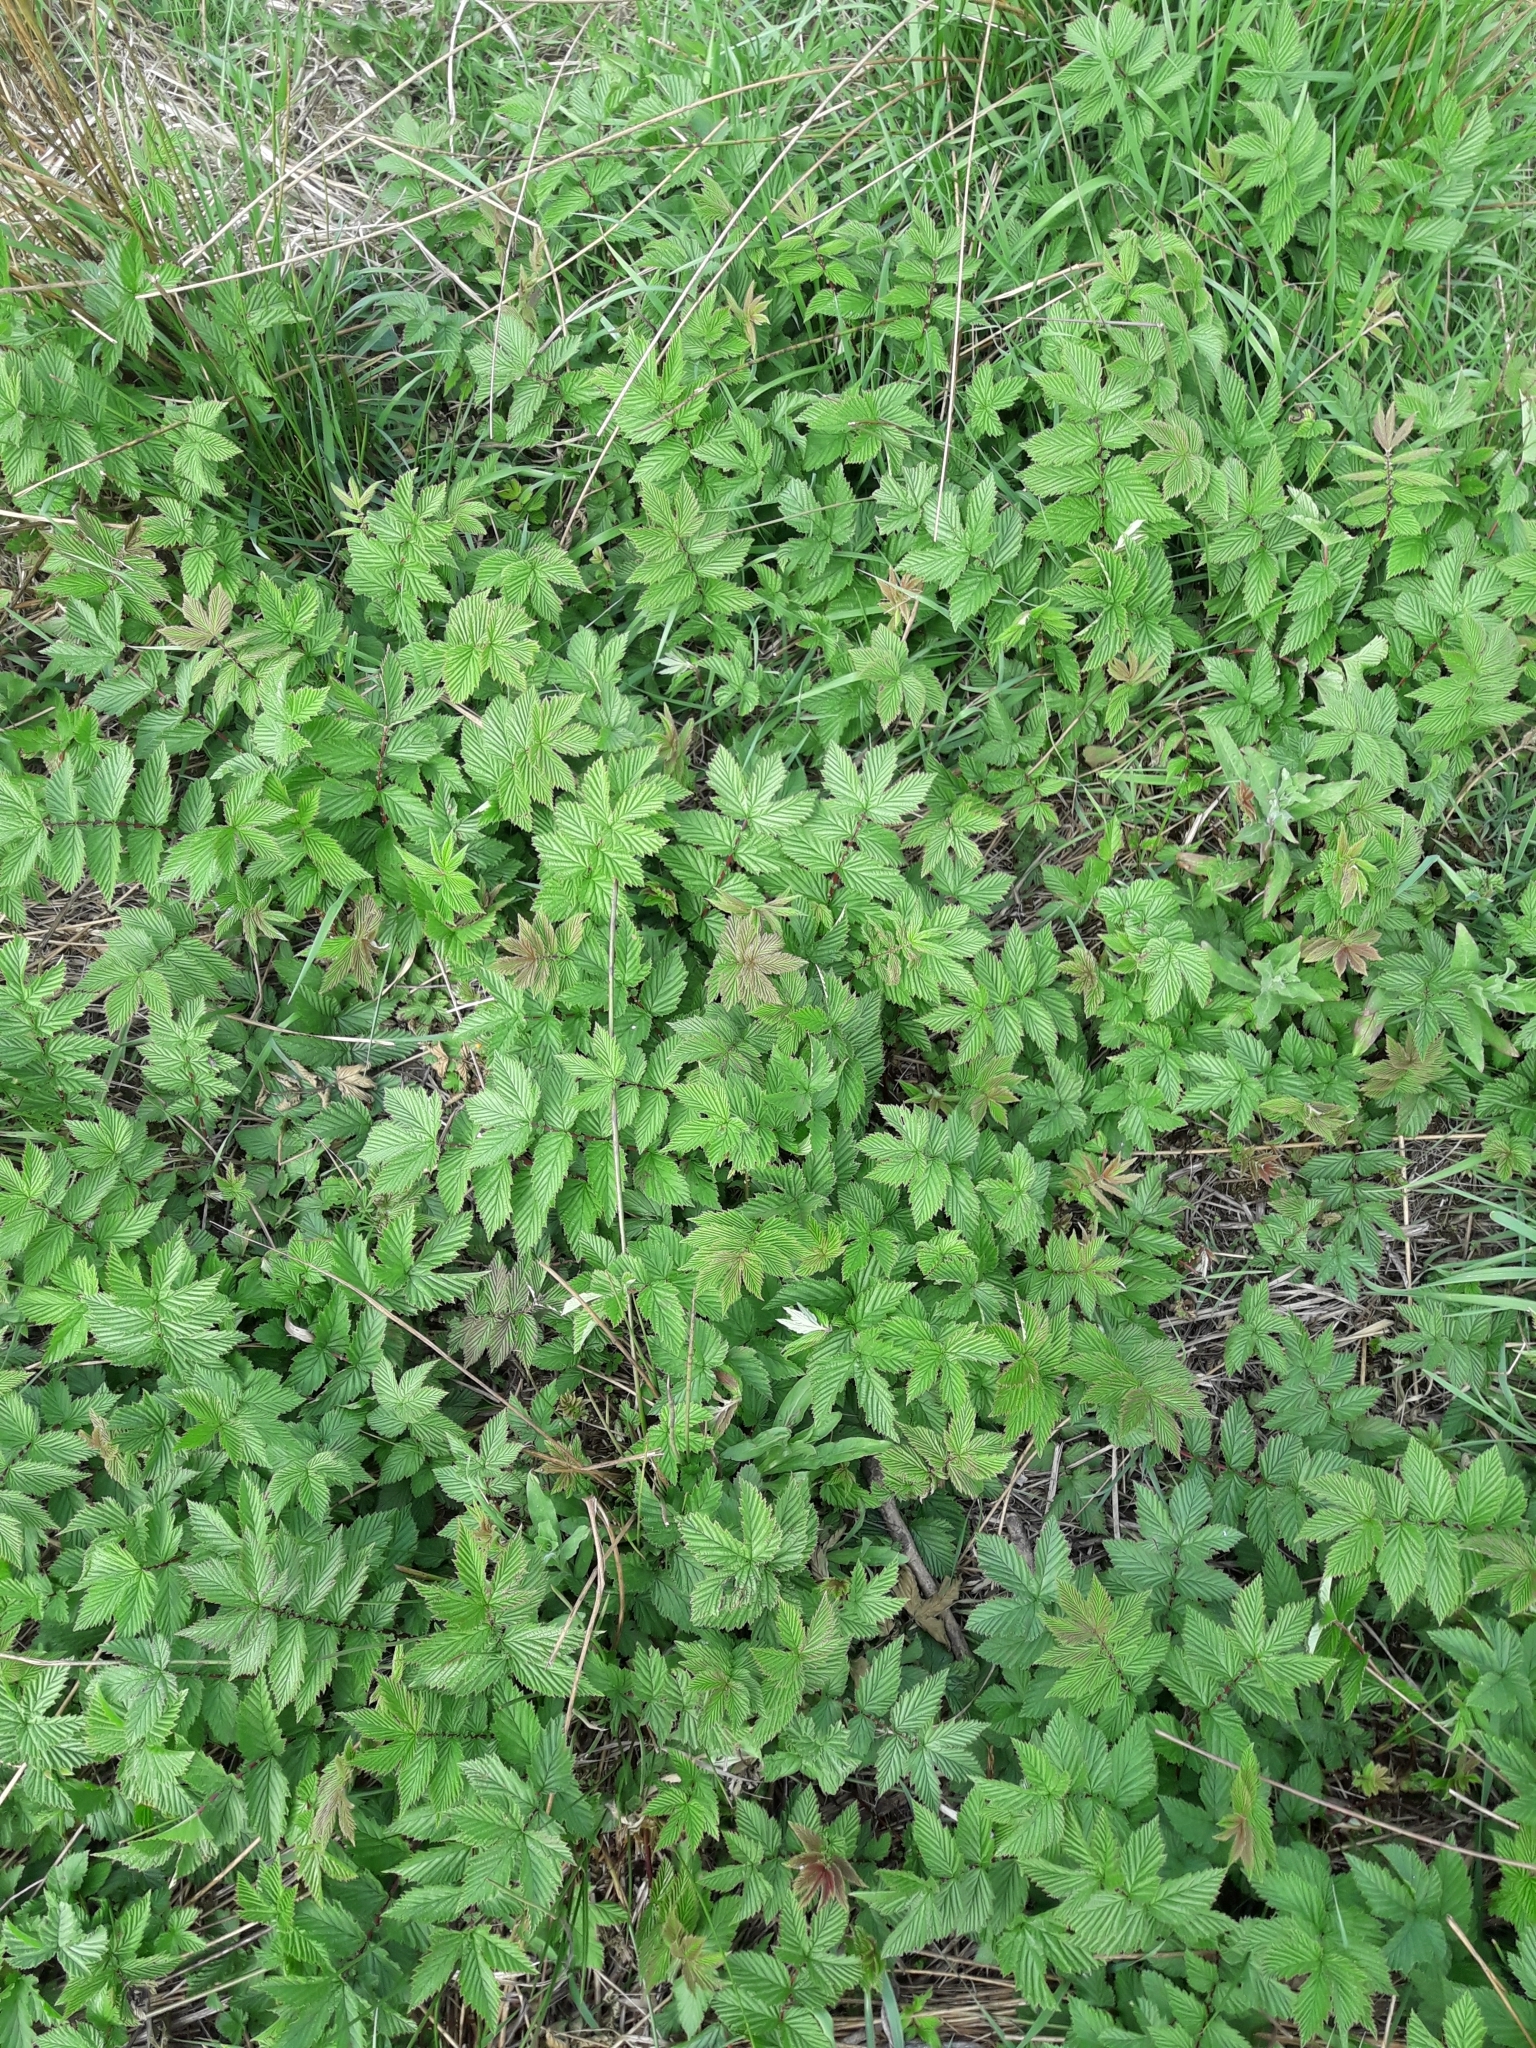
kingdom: Plantae
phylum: Tracheophyta
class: Magnoliopsida
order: Rosales
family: Rosaceae
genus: Filipendula
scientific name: Filipendula ulmaria
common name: Meadowsweet
